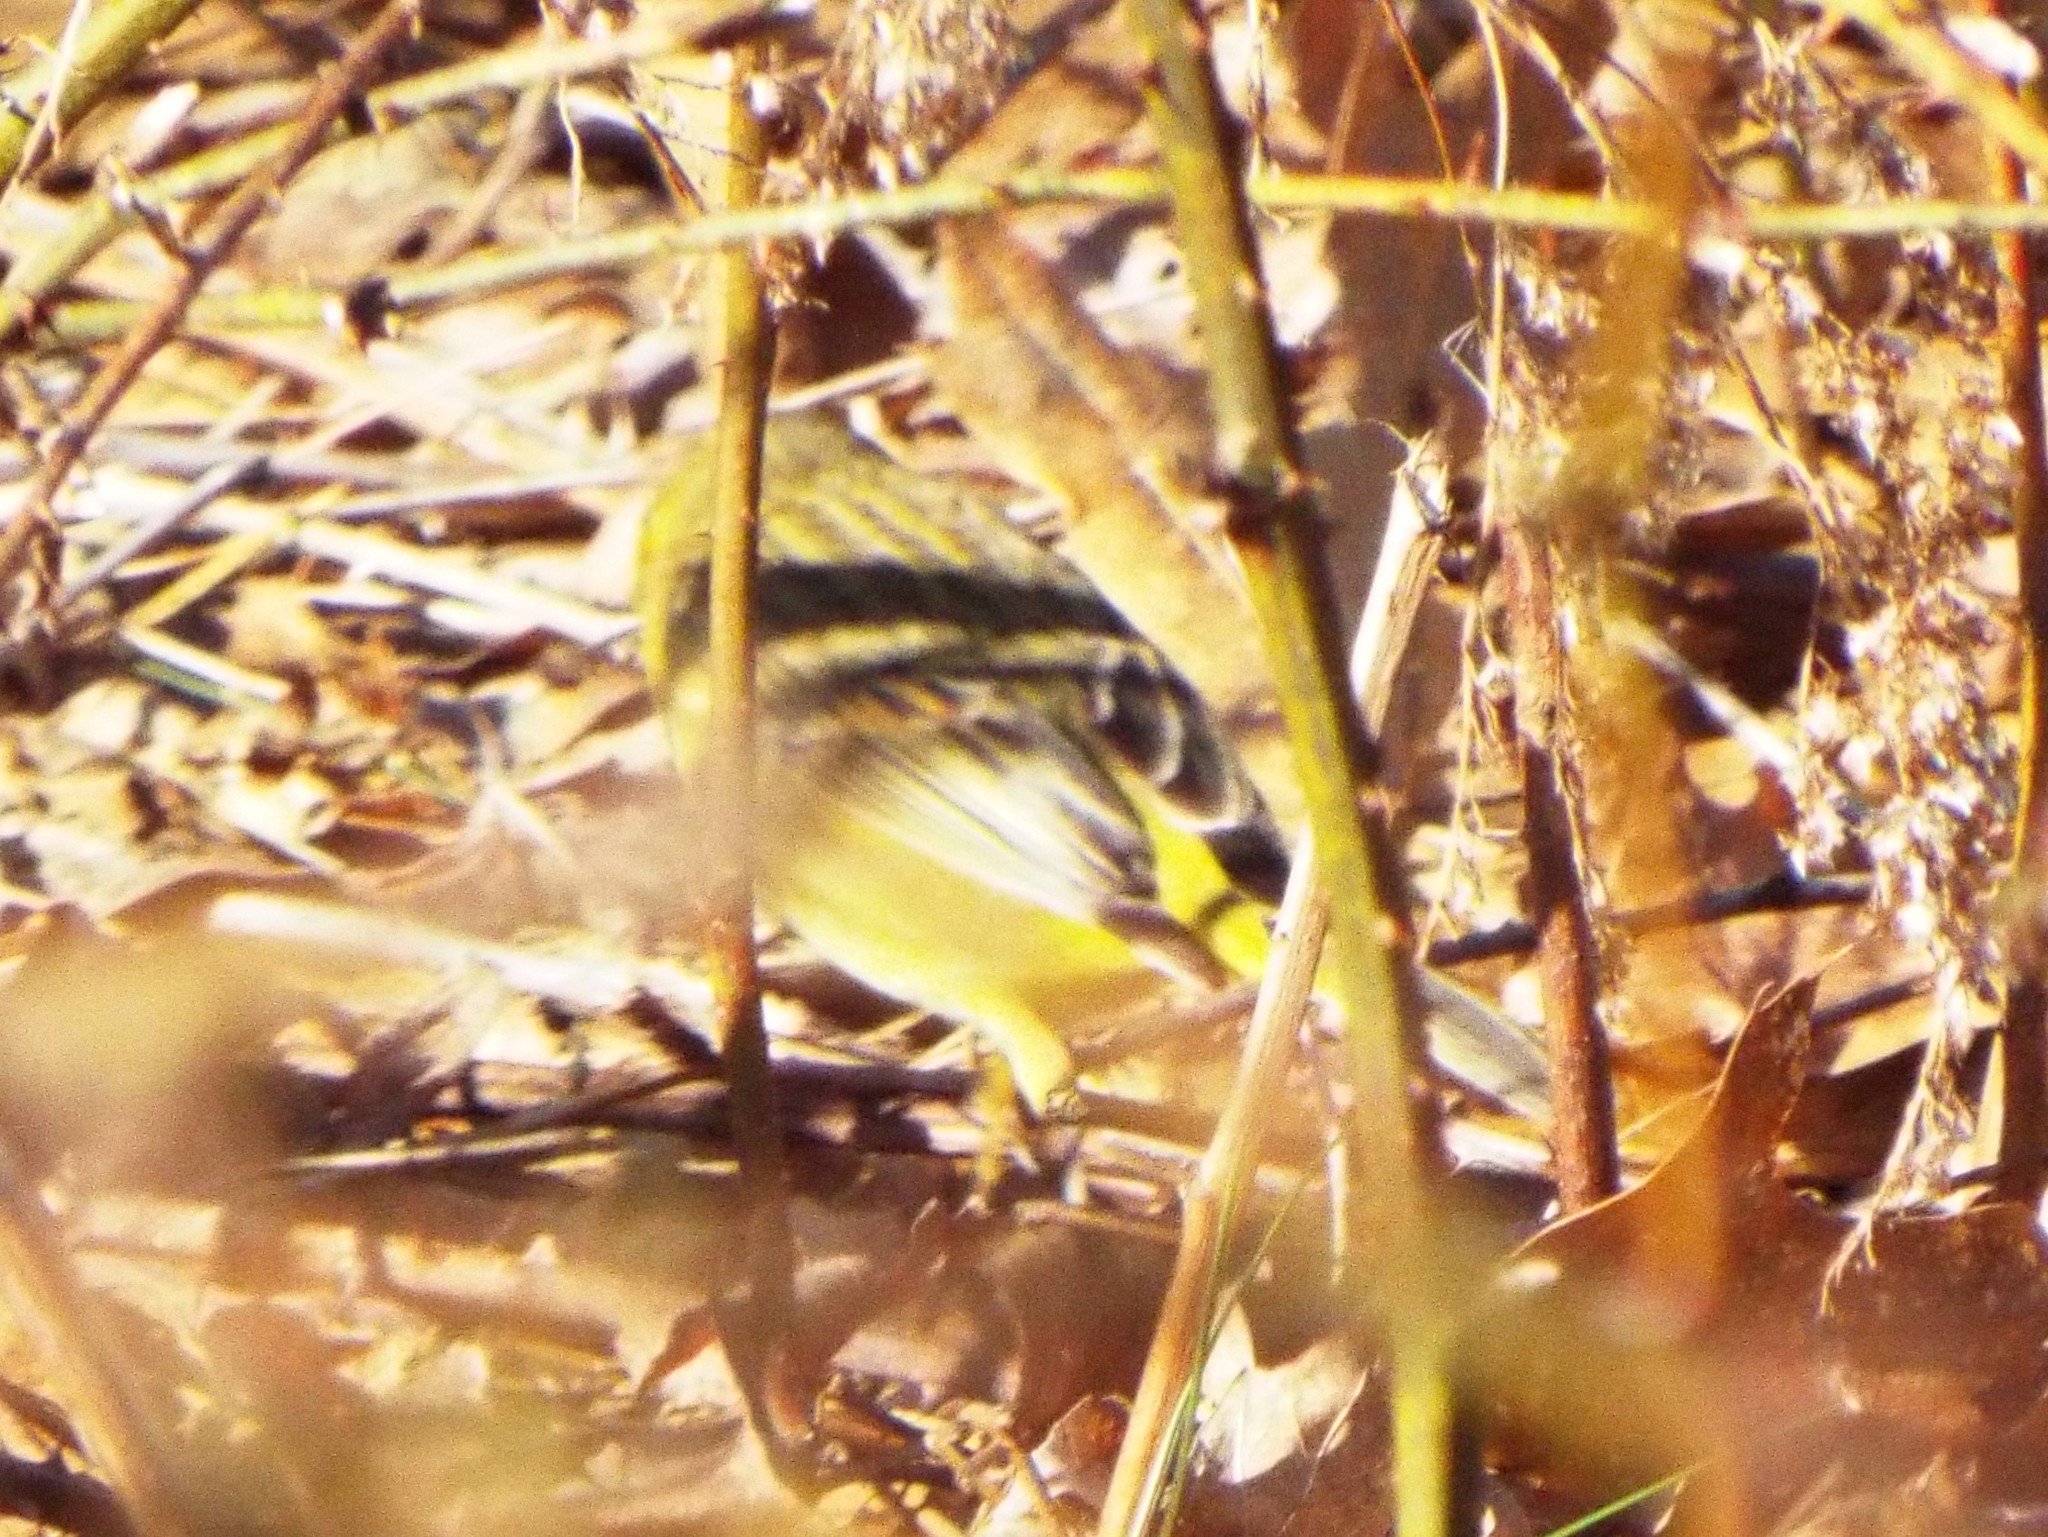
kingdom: Animalia
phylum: Chordata
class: Aves
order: Passeriformes
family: Parulidae
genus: Setophaga
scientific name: Setophaga palmarum
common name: Palm warbler
